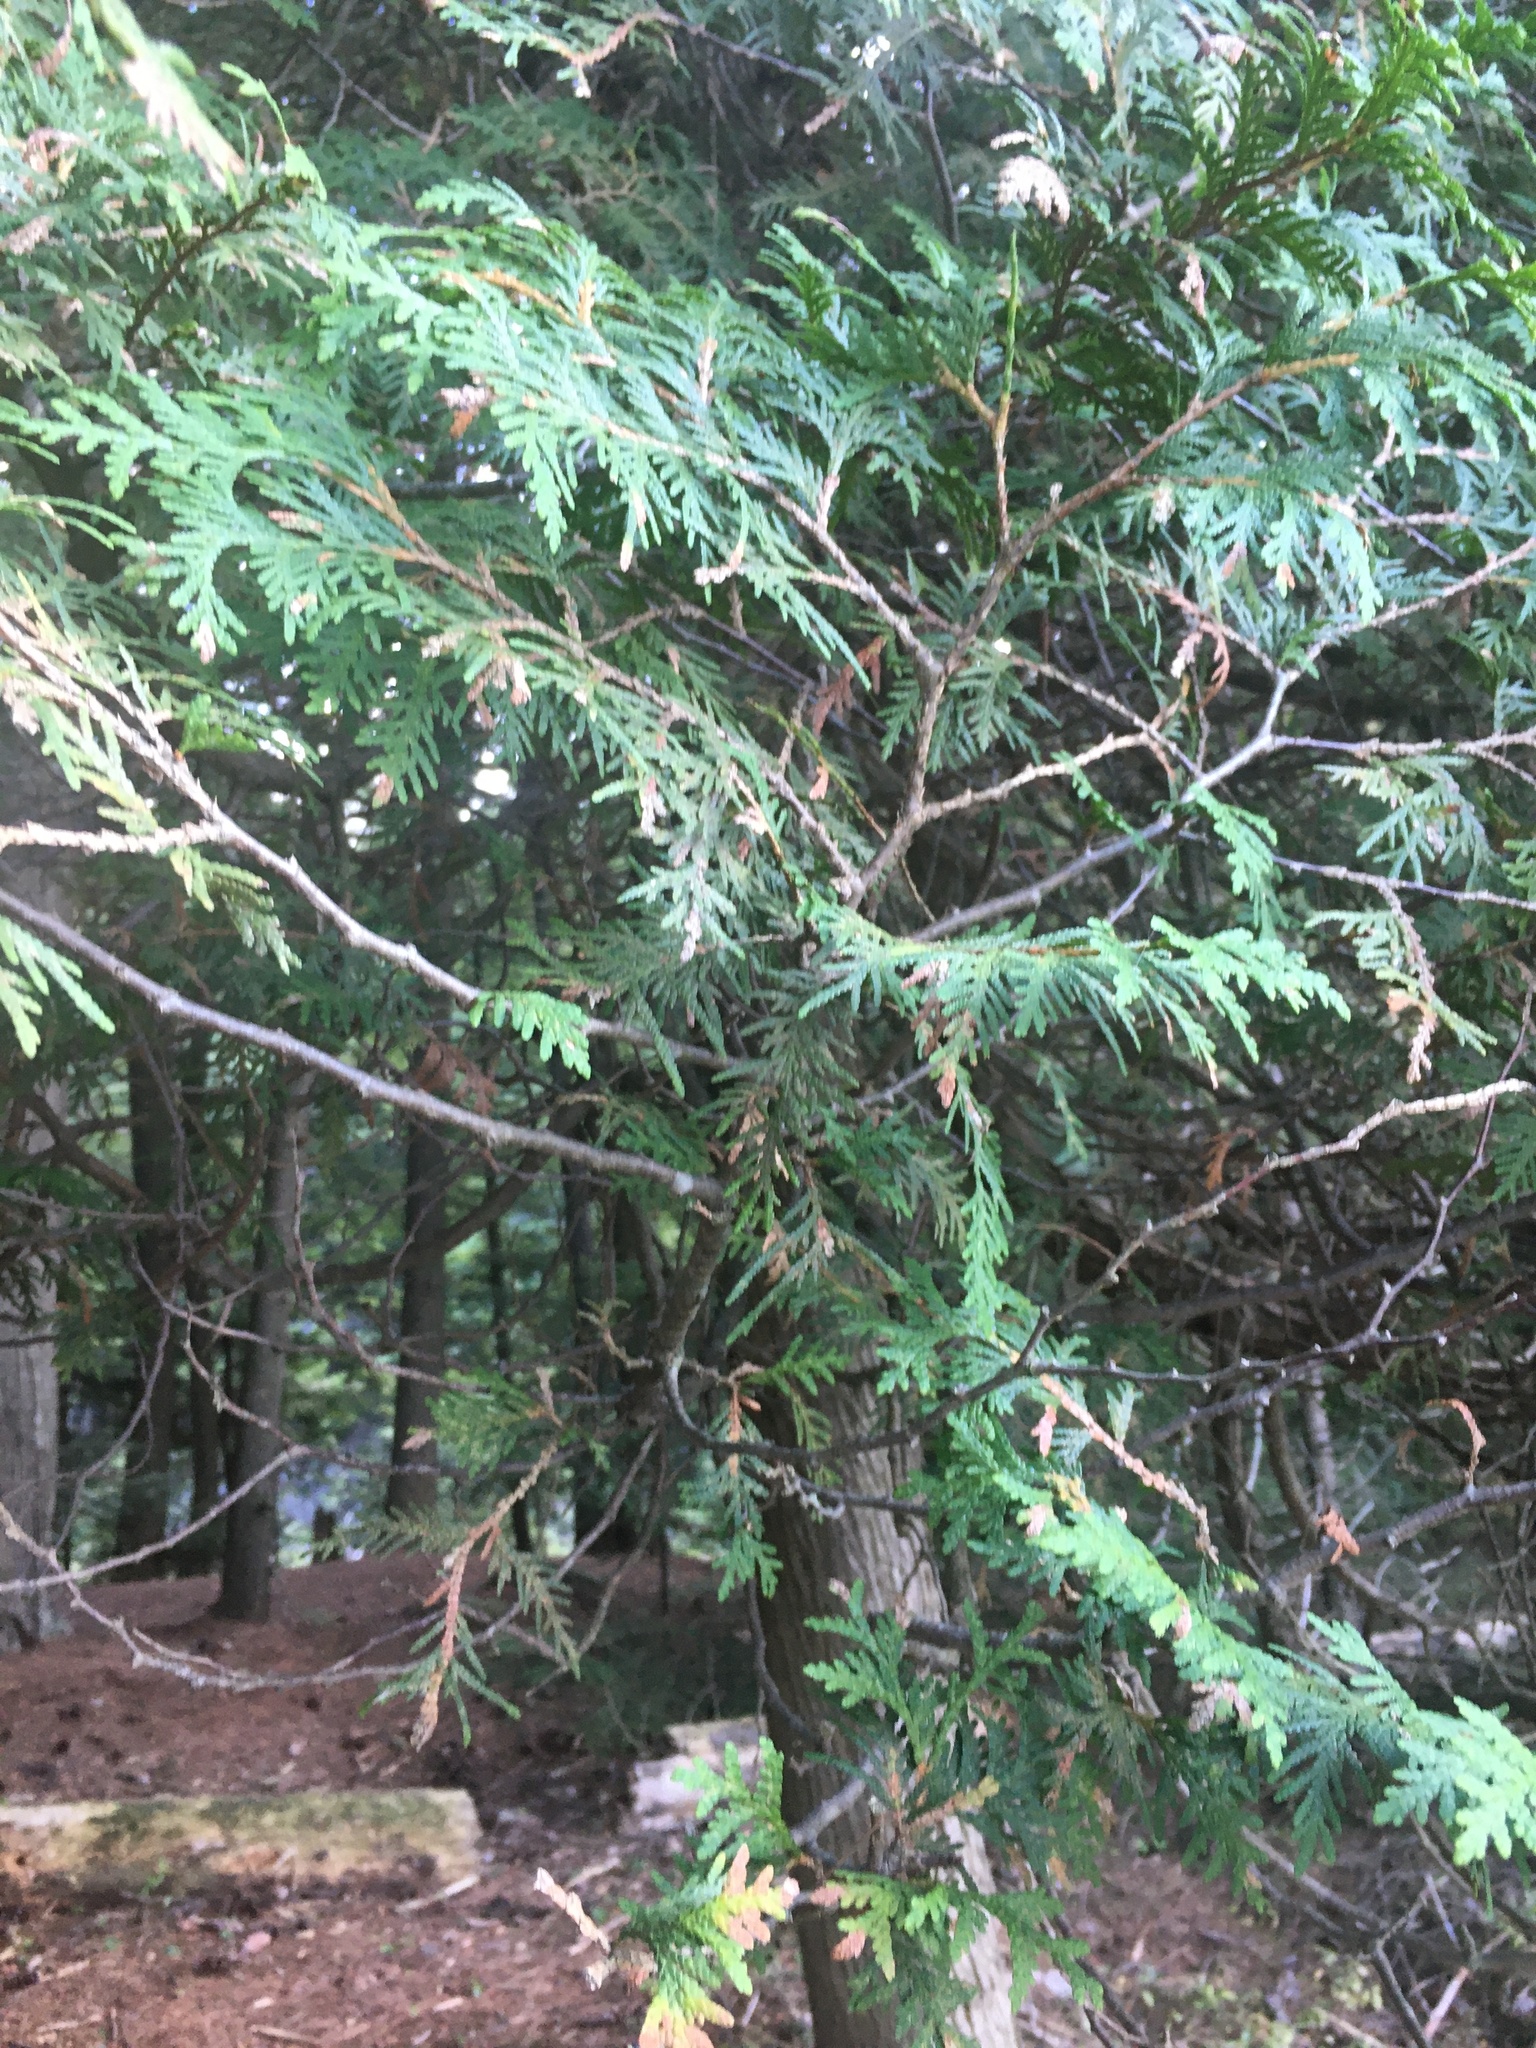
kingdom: Plantae
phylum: Tracheophyta
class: Pinopsida
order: Pinales
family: Cupressaceae
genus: Thuja
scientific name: Thuja occidentalis
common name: Northern white-cedar
